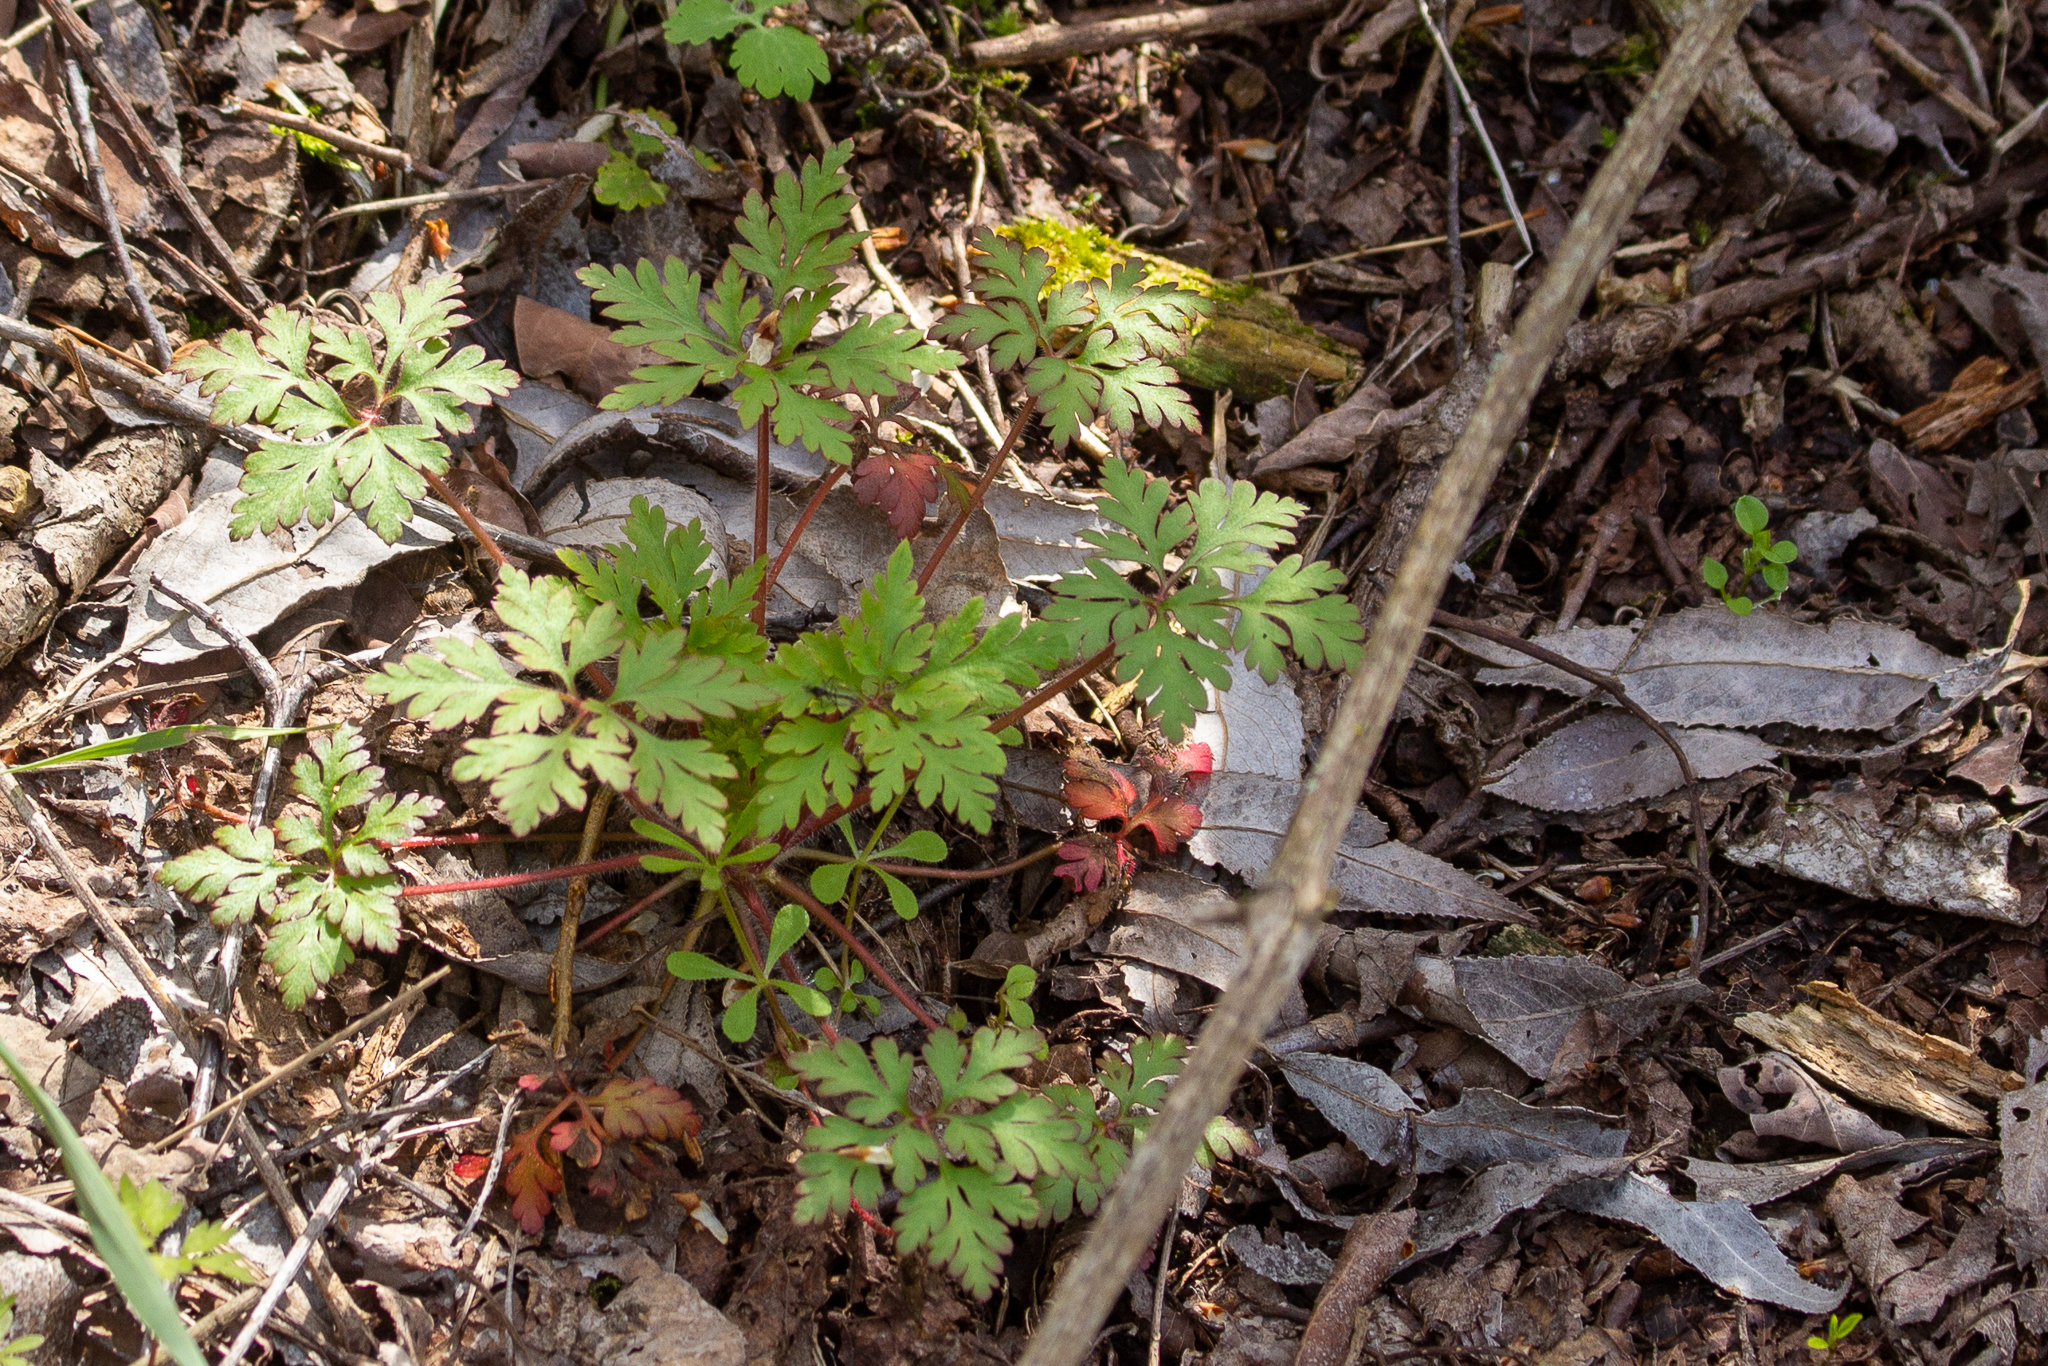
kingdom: Plantae
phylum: Tracheophyta
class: Magnoliopsida
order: Geraniales
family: Geraniaceae
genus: Geranium
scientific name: Geranium robertianum
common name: Herb-robert
